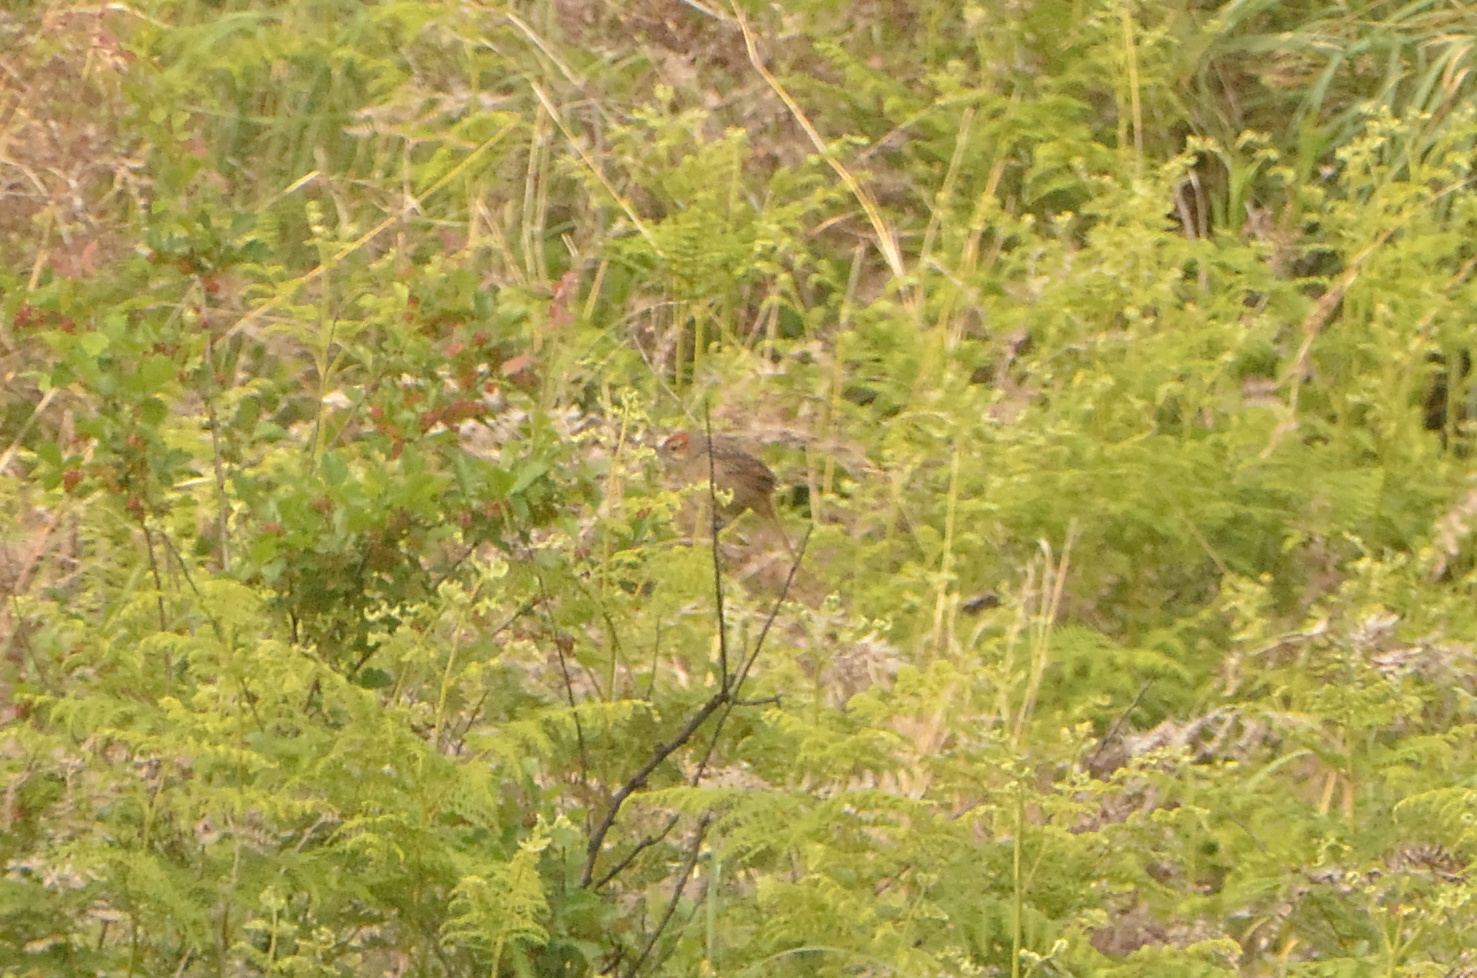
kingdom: Animalia
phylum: Chordata
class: Aves
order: Passeriformes
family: Macrosphenidae
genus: Sphenoeacus
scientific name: Sphenoeacus afer
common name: Cape grassbird
